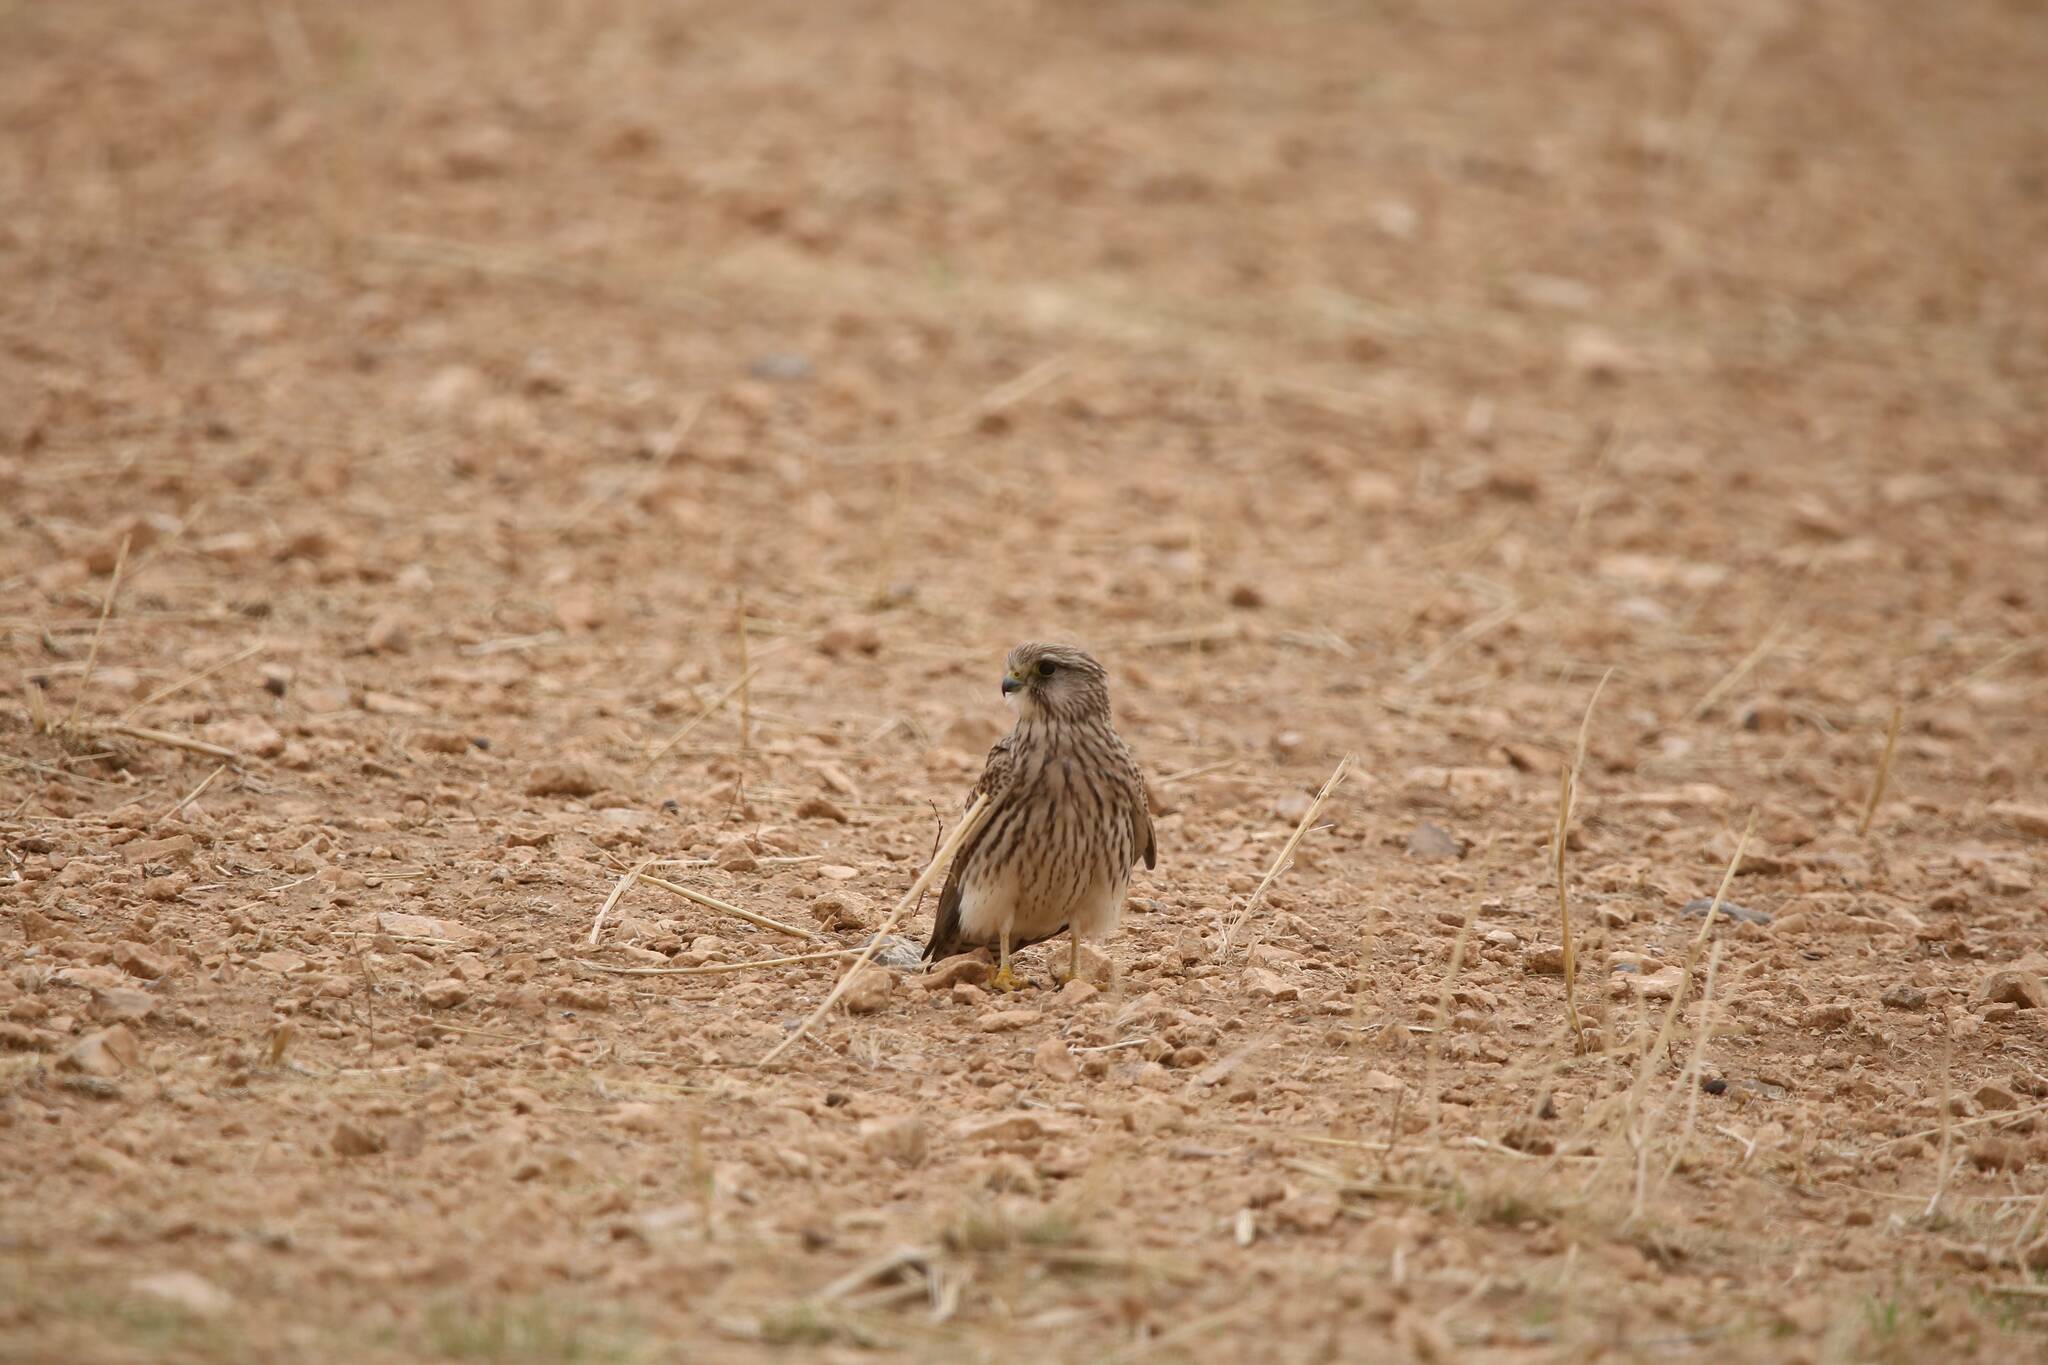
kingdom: Animalia
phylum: Chordata
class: Aves
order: Falconiformes
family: Falconidae
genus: Falco
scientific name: Falco tinnunculus
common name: Common kestrel
